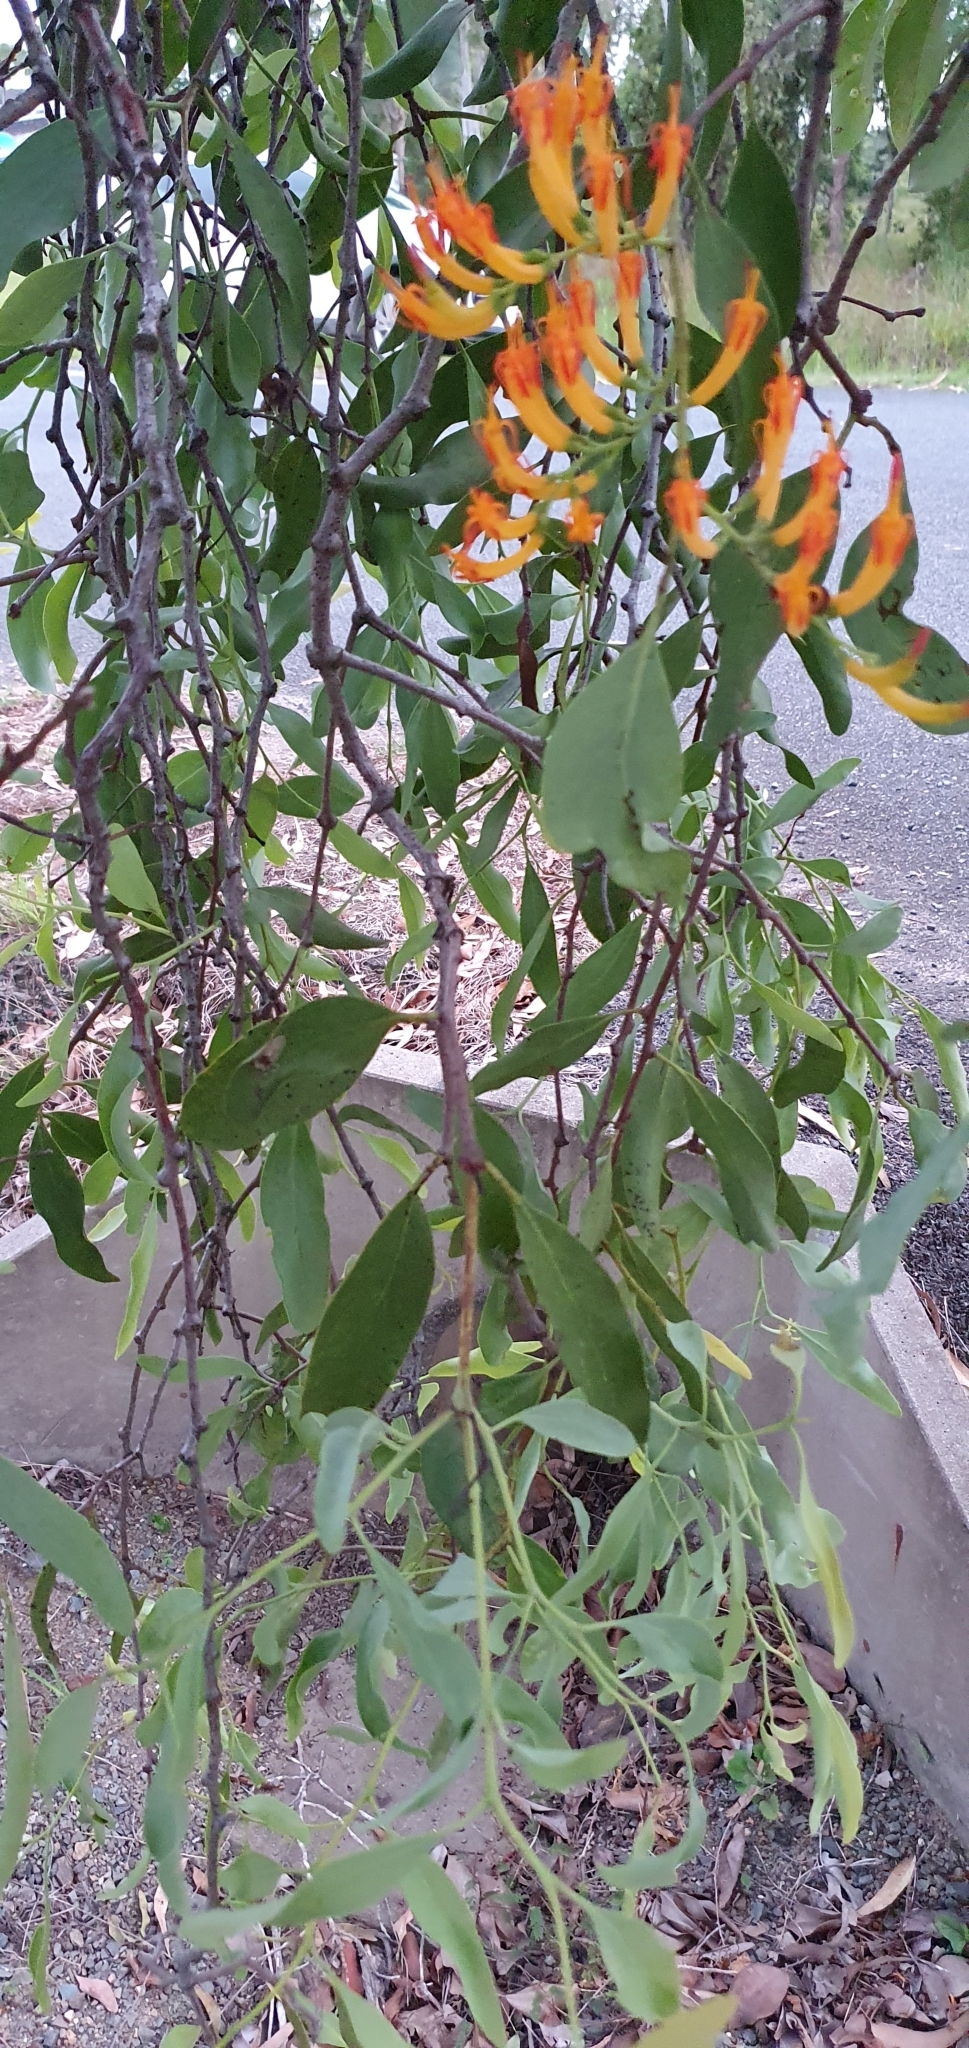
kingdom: Plantae
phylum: Tracheophyta
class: Magnoliopsida
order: Santalales
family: Loranthaceae
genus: Dendrophthoe
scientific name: Dendrophthoe glabrescens
